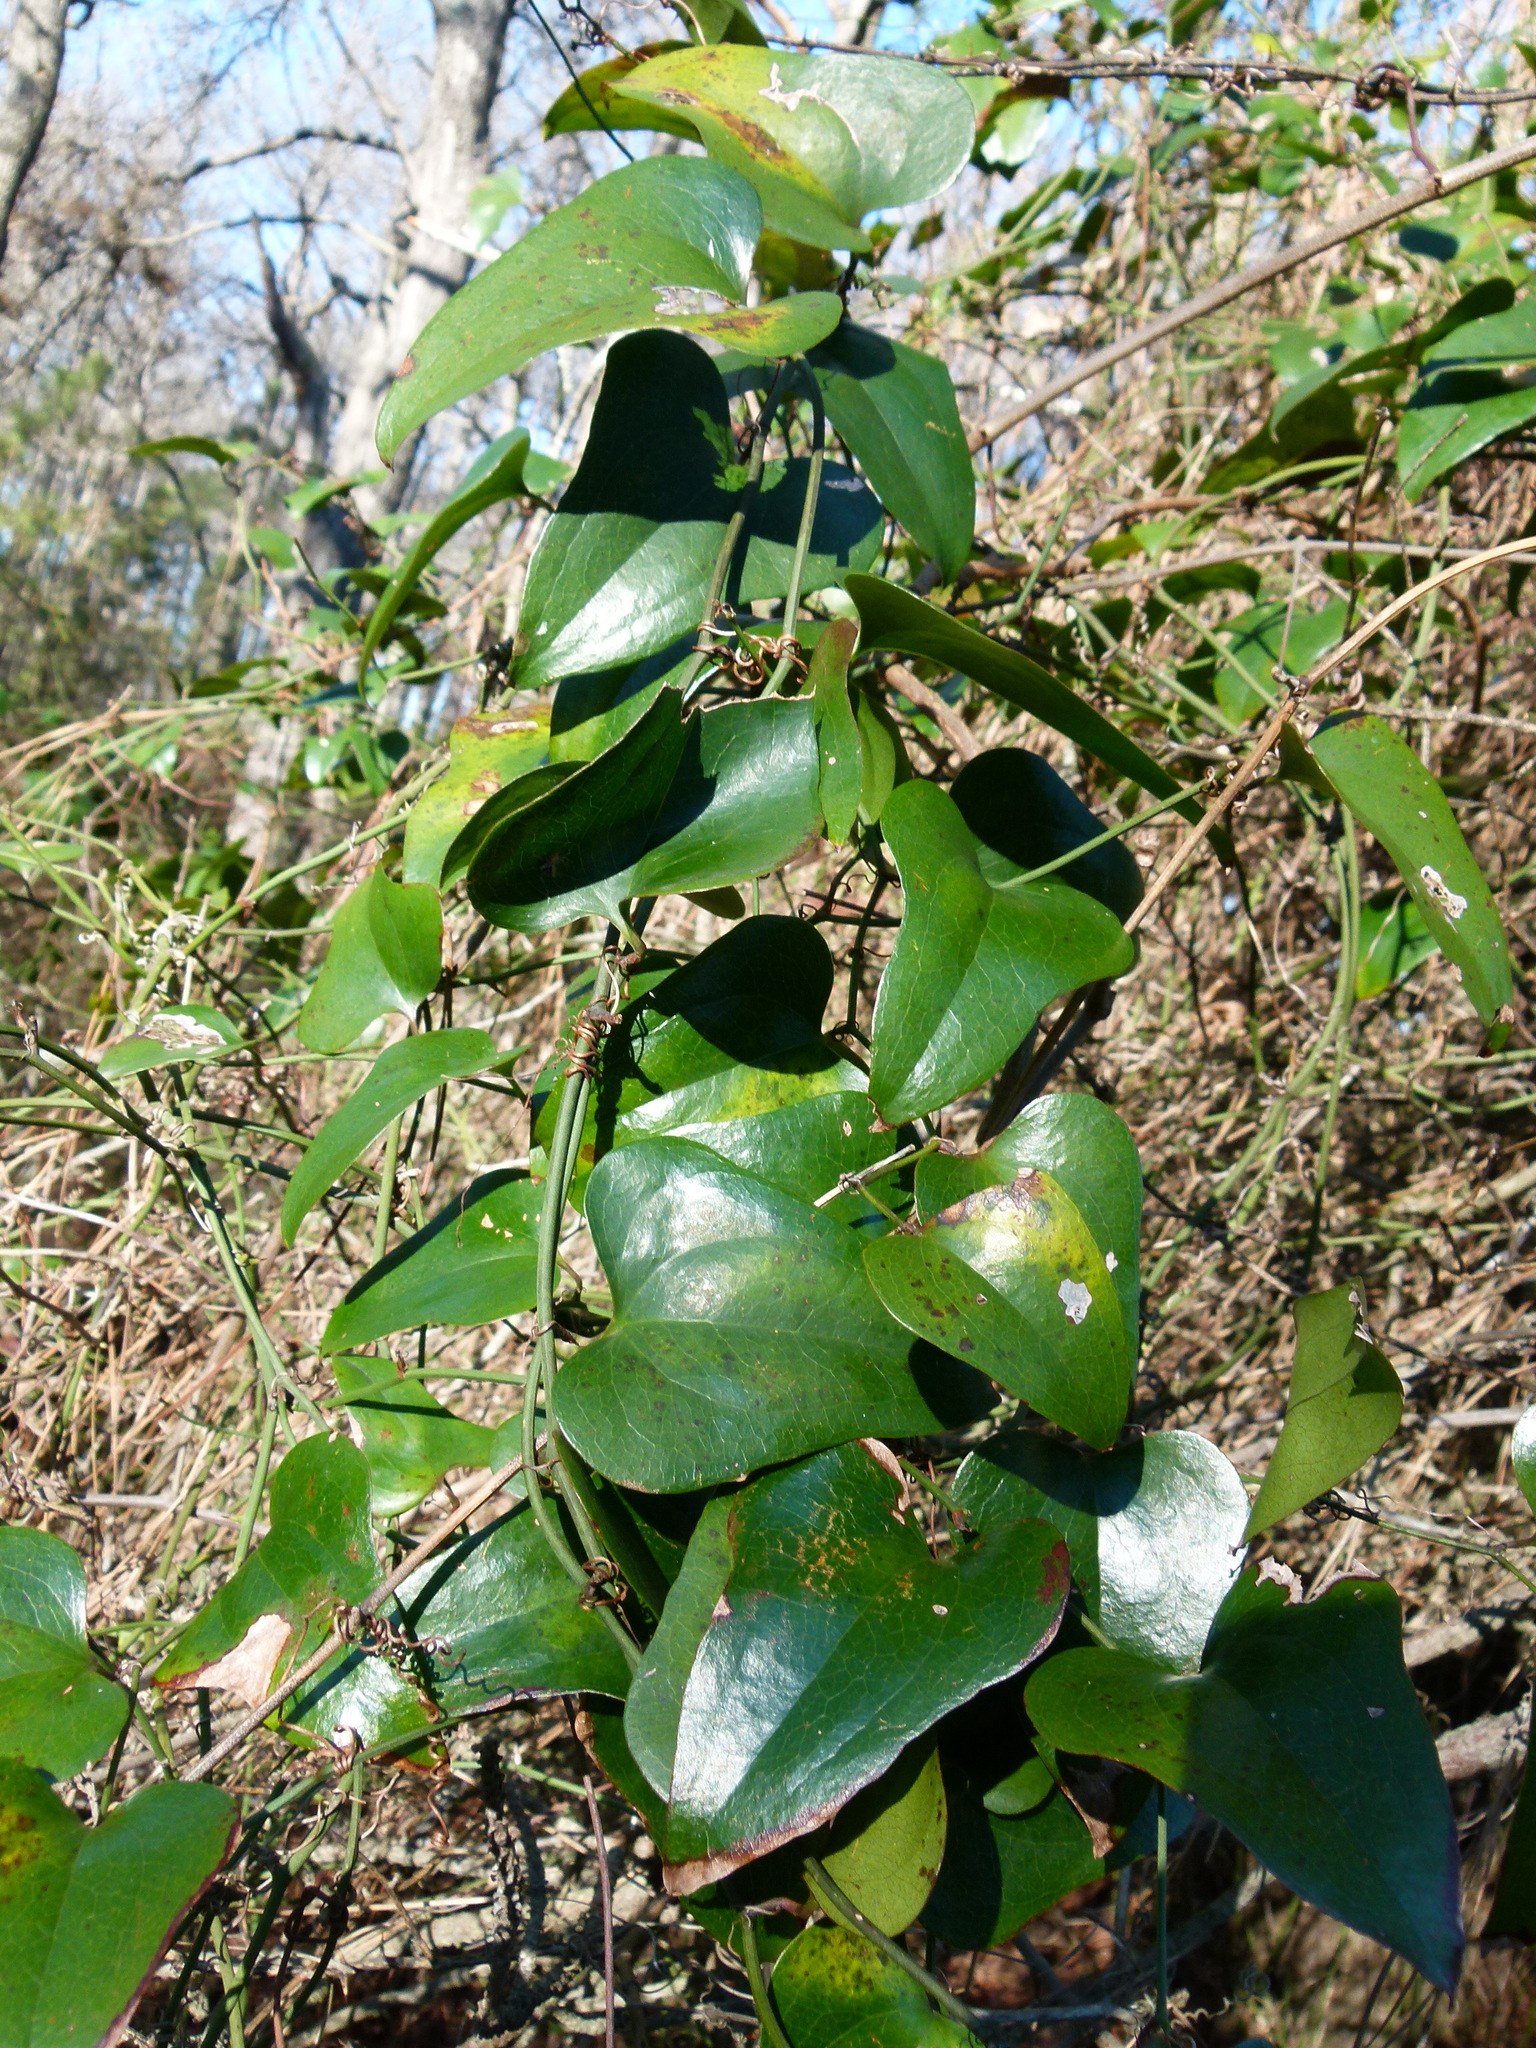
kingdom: Plantae
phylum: Tracheophyta
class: Liliopsida
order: Liliales
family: Smilacaceae
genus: Smilax
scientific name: Smilax bona-nox
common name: Catbrier
